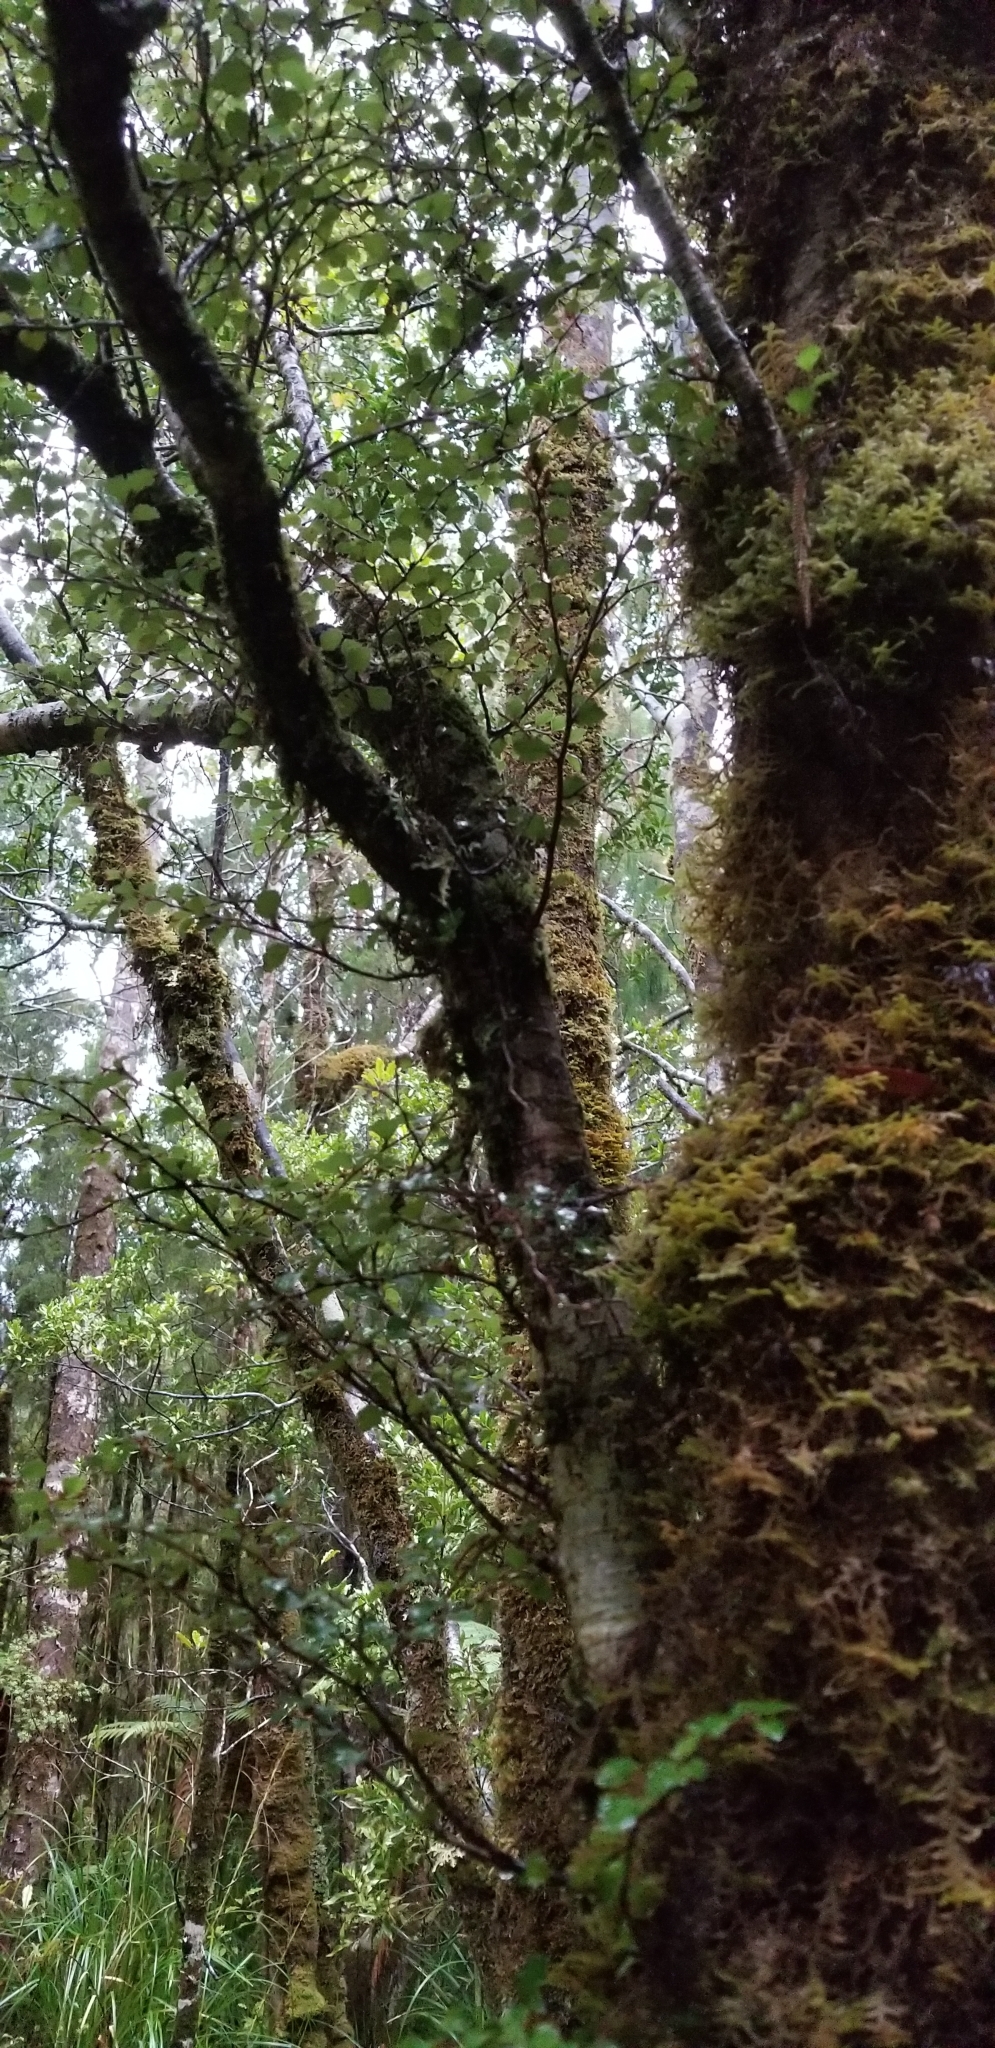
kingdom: Plantae
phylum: Tracheophyta
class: Magnoliopsida
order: Fagales
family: Nothofagaceae
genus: Nothofagus
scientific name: Nothofagus menziesii
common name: Silver beech
